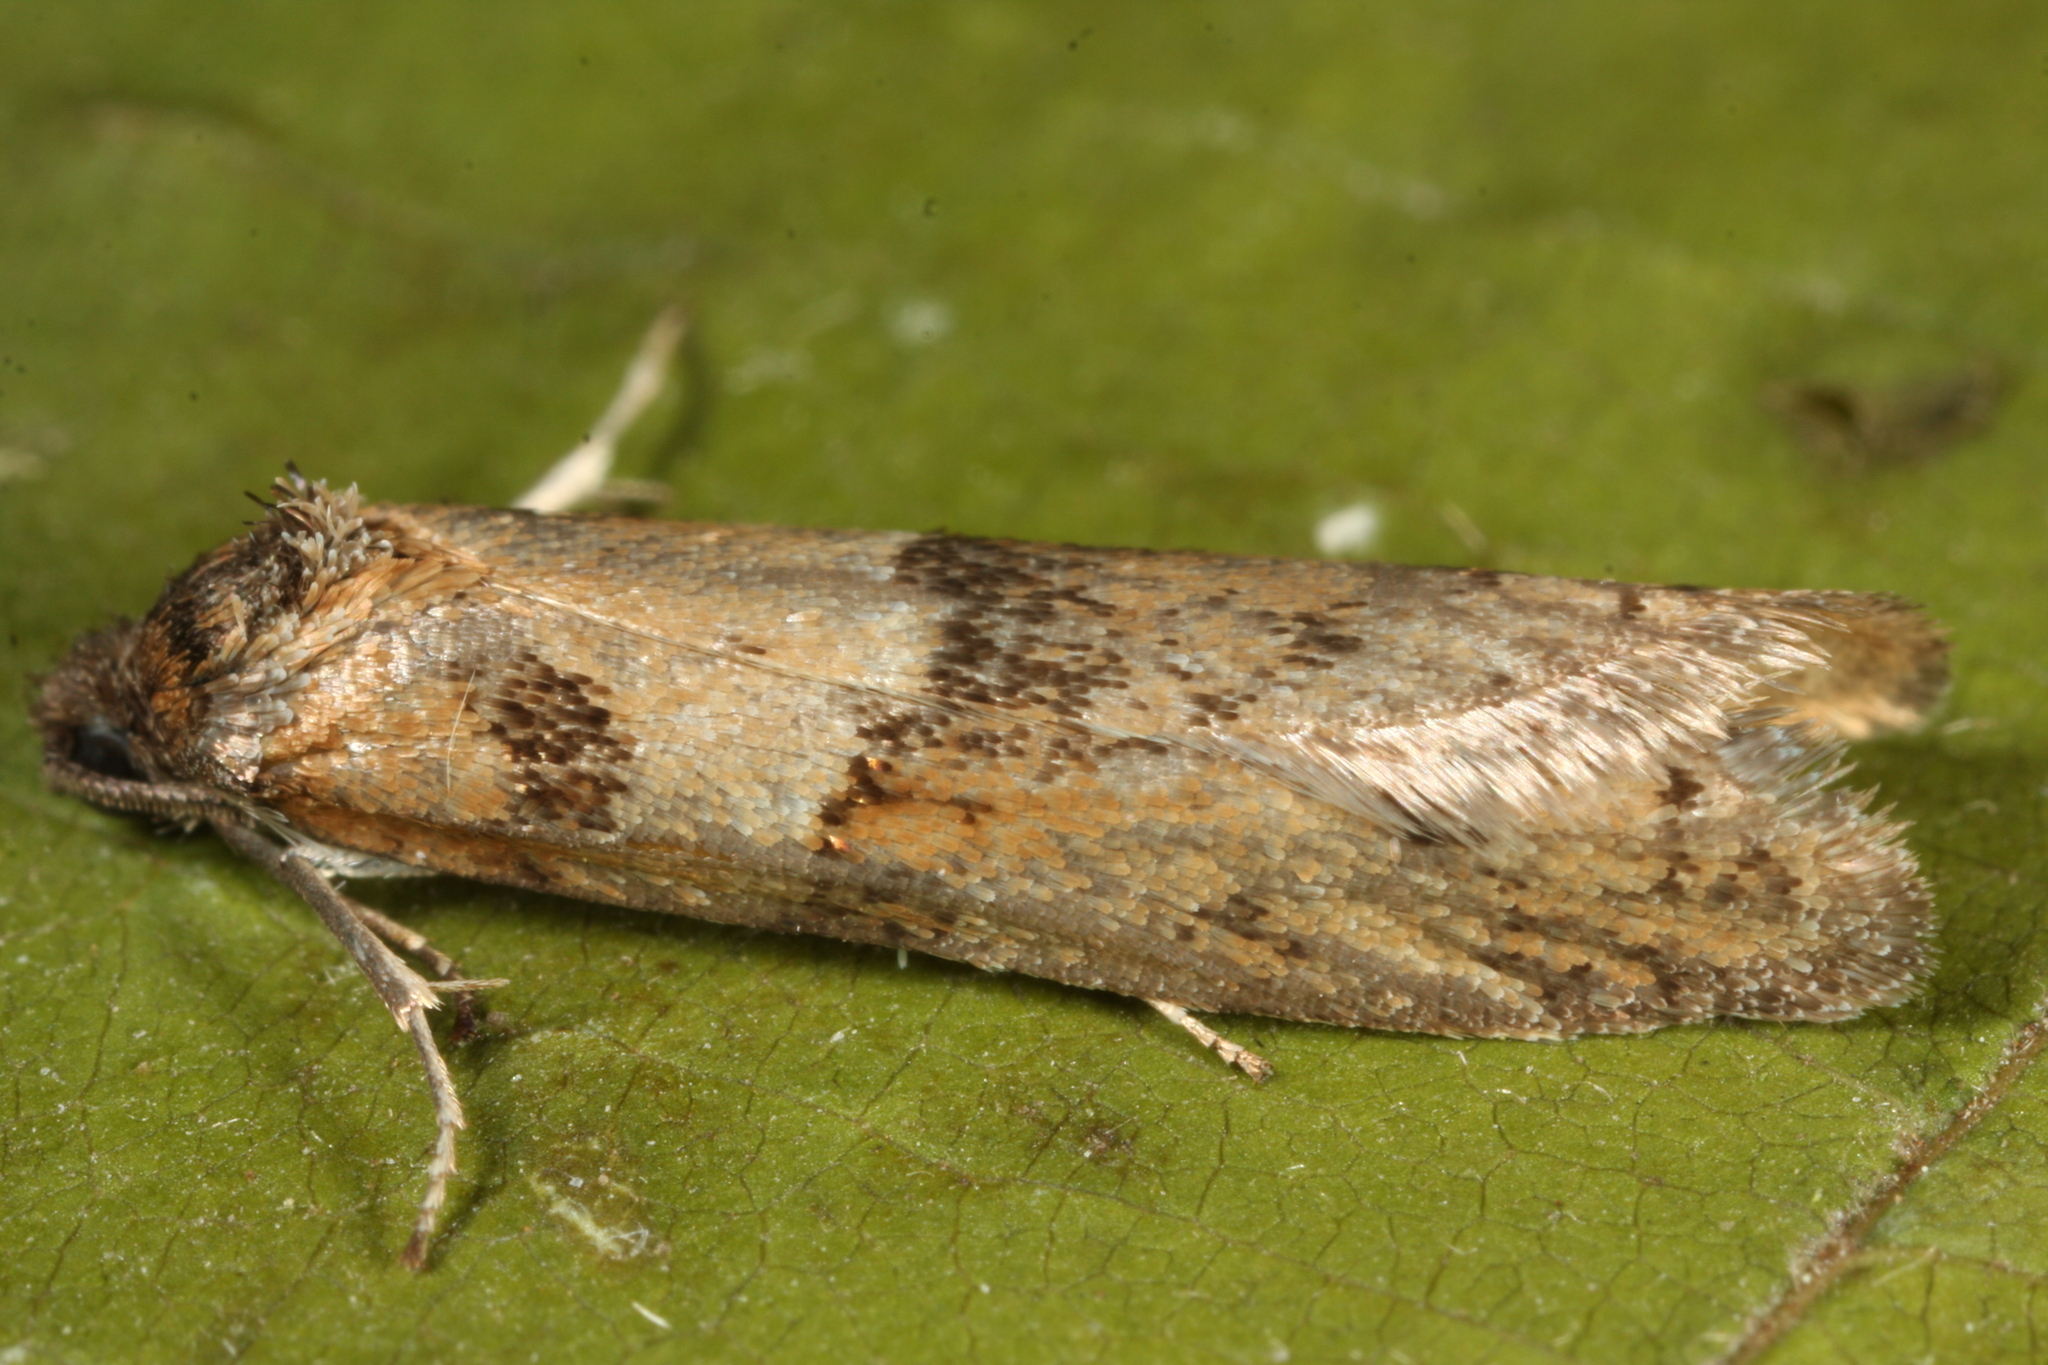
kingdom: Animalia
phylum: Arthropoda
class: Insecta
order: Lepidoptera
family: Tortricidae
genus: Tortricodes
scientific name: Tortricodes alternella
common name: Winter shade
